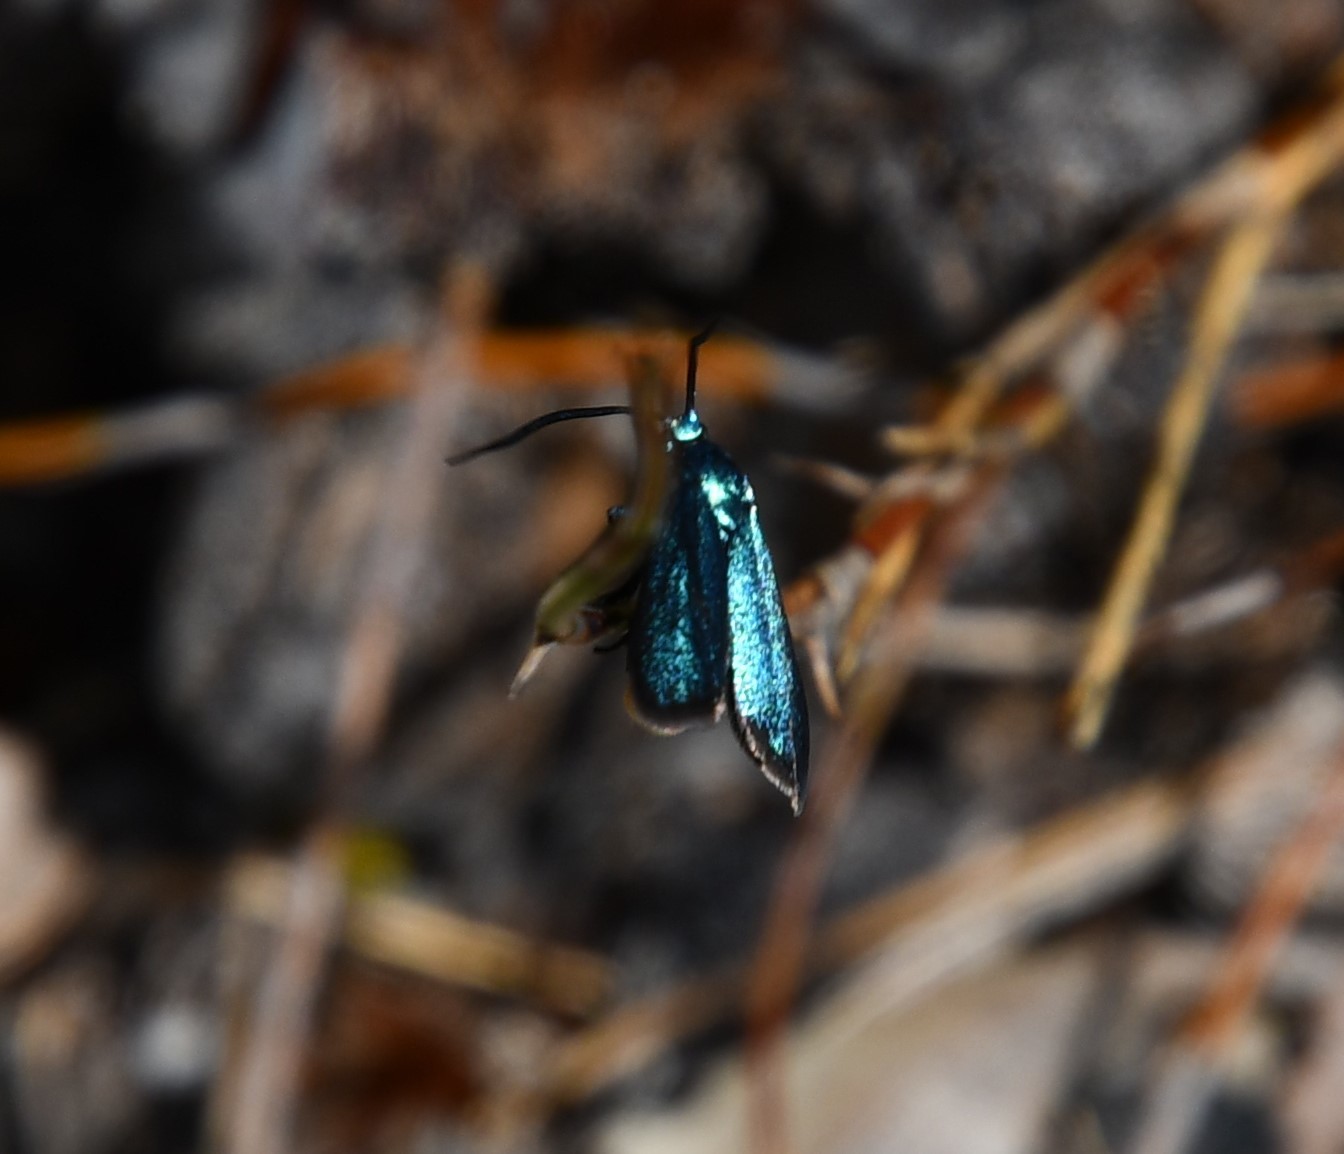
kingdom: Animalia
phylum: Arthropoda
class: Insecta
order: Lepidoptera
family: Zygaenidae
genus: Pollanisus
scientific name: Pollanisus viridipulverulenta
